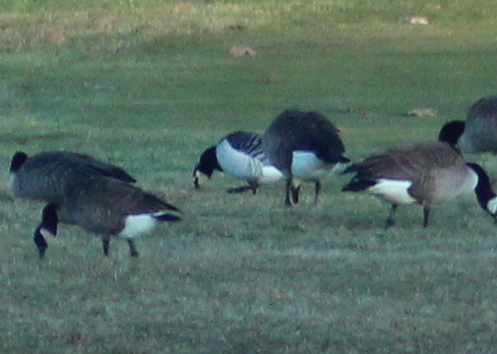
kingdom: Animalia
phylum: Chordata
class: Aves
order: Anseriformes
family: Anatidae
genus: Branta
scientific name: Branta leucopsis
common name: Barnacle goose
